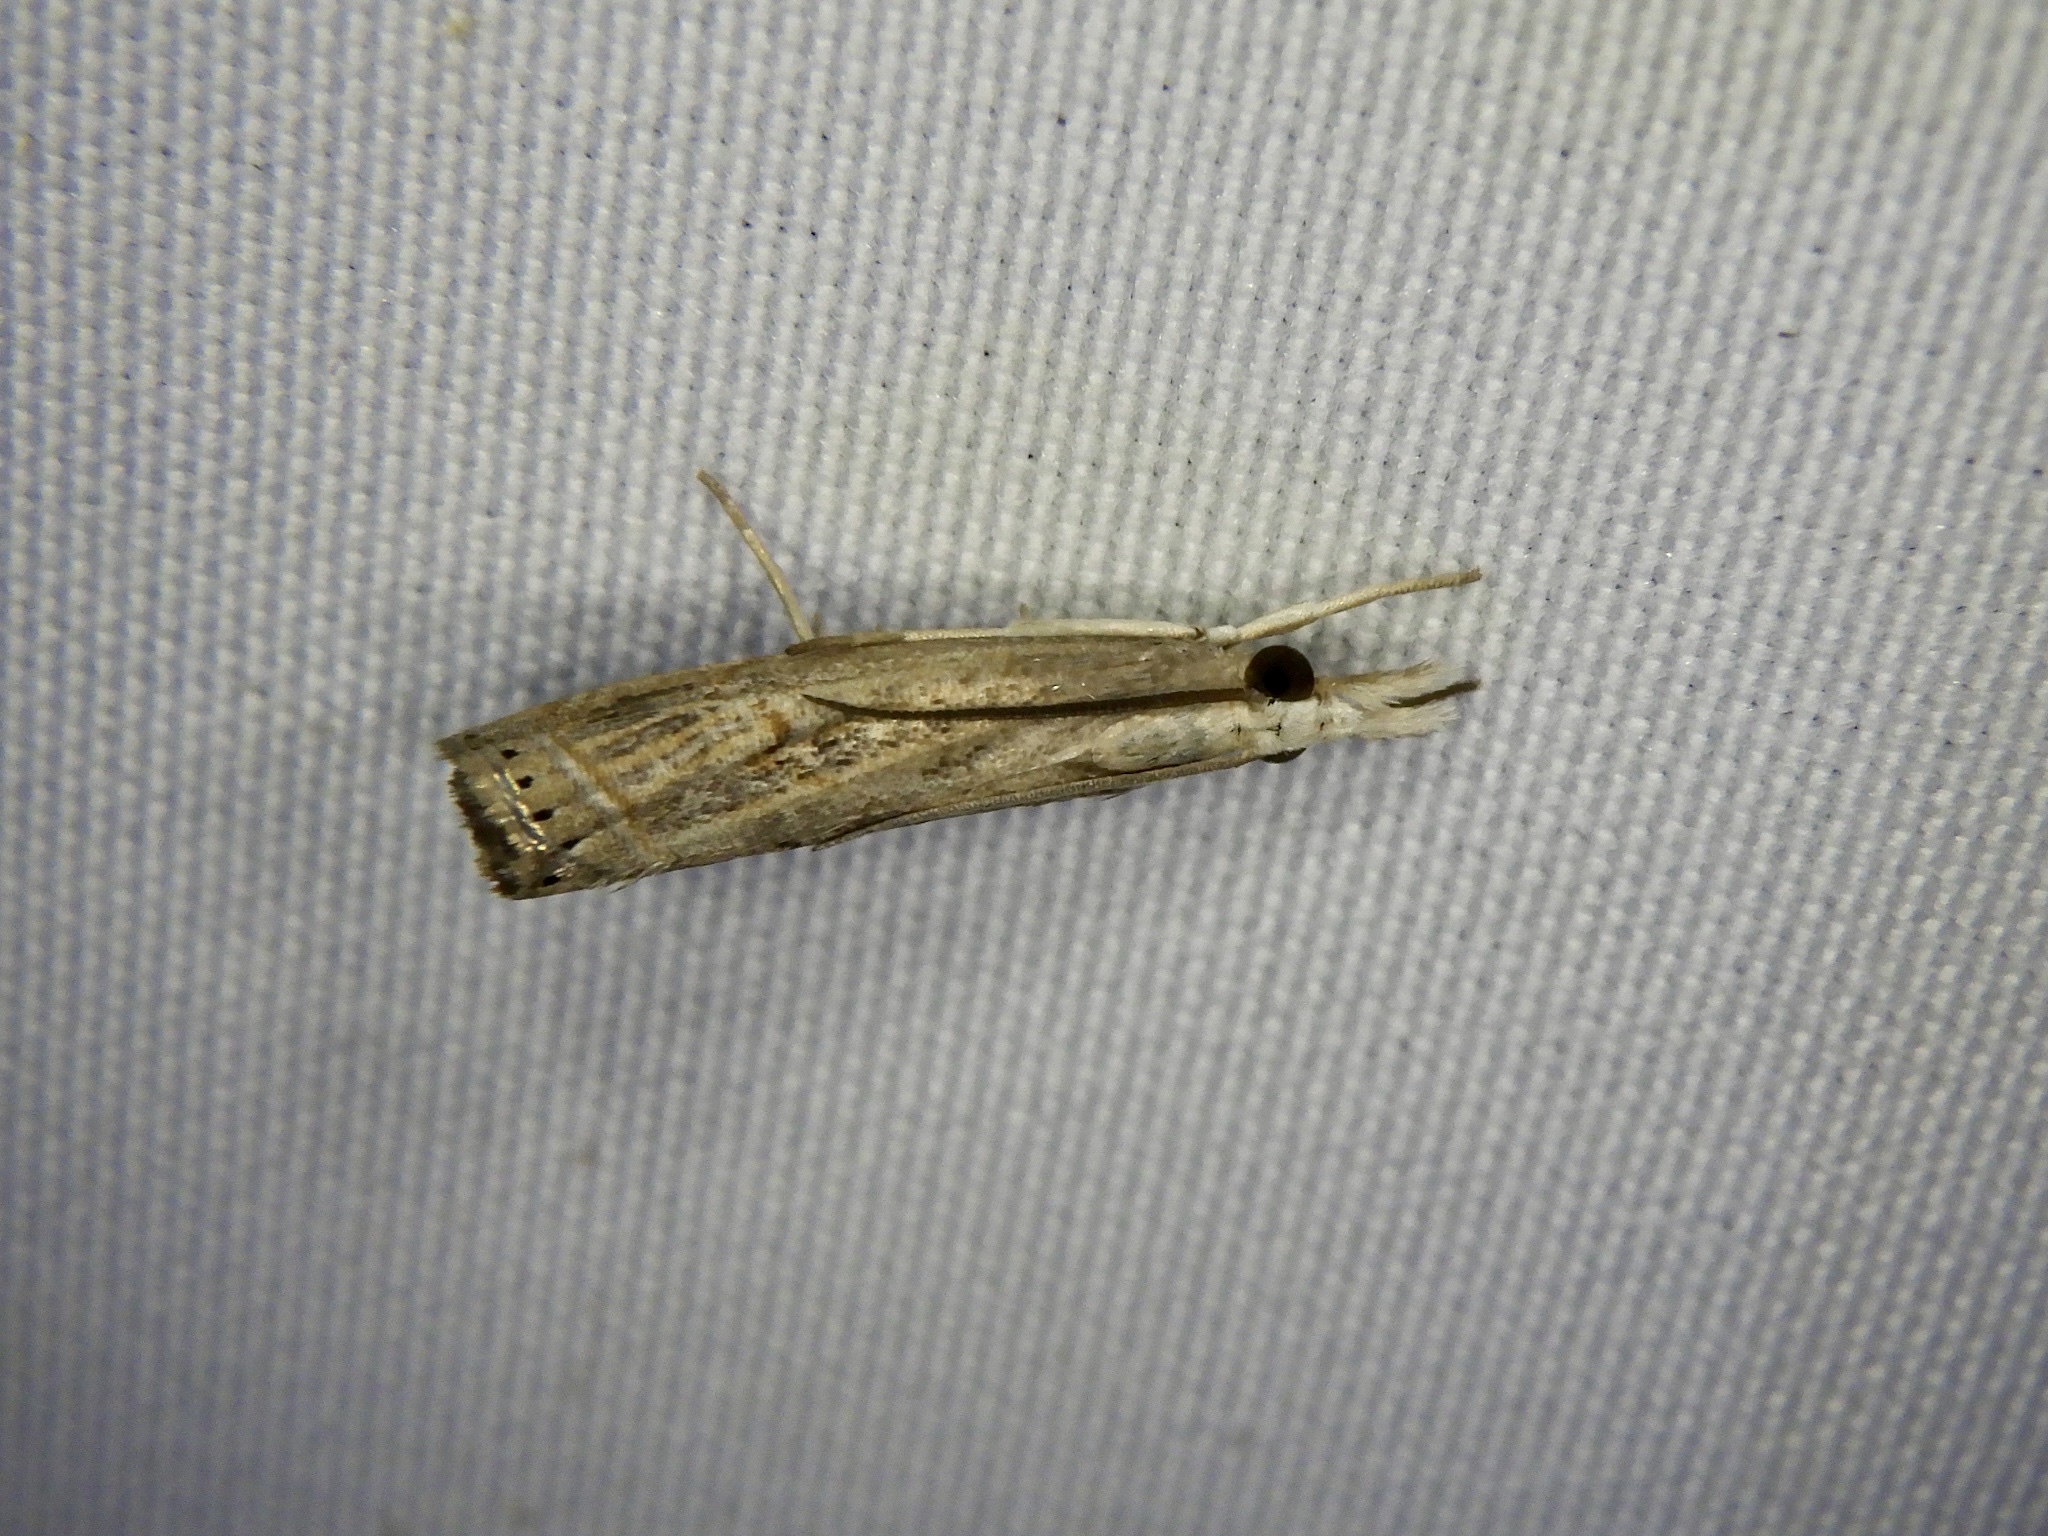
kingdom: Animalia
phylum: Arthropoda
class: Insecta
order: Lepidoptera
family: Crambidae
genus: Parapediasia
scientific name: Parapediasia teterellus
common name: Bluegrass webworm moth
